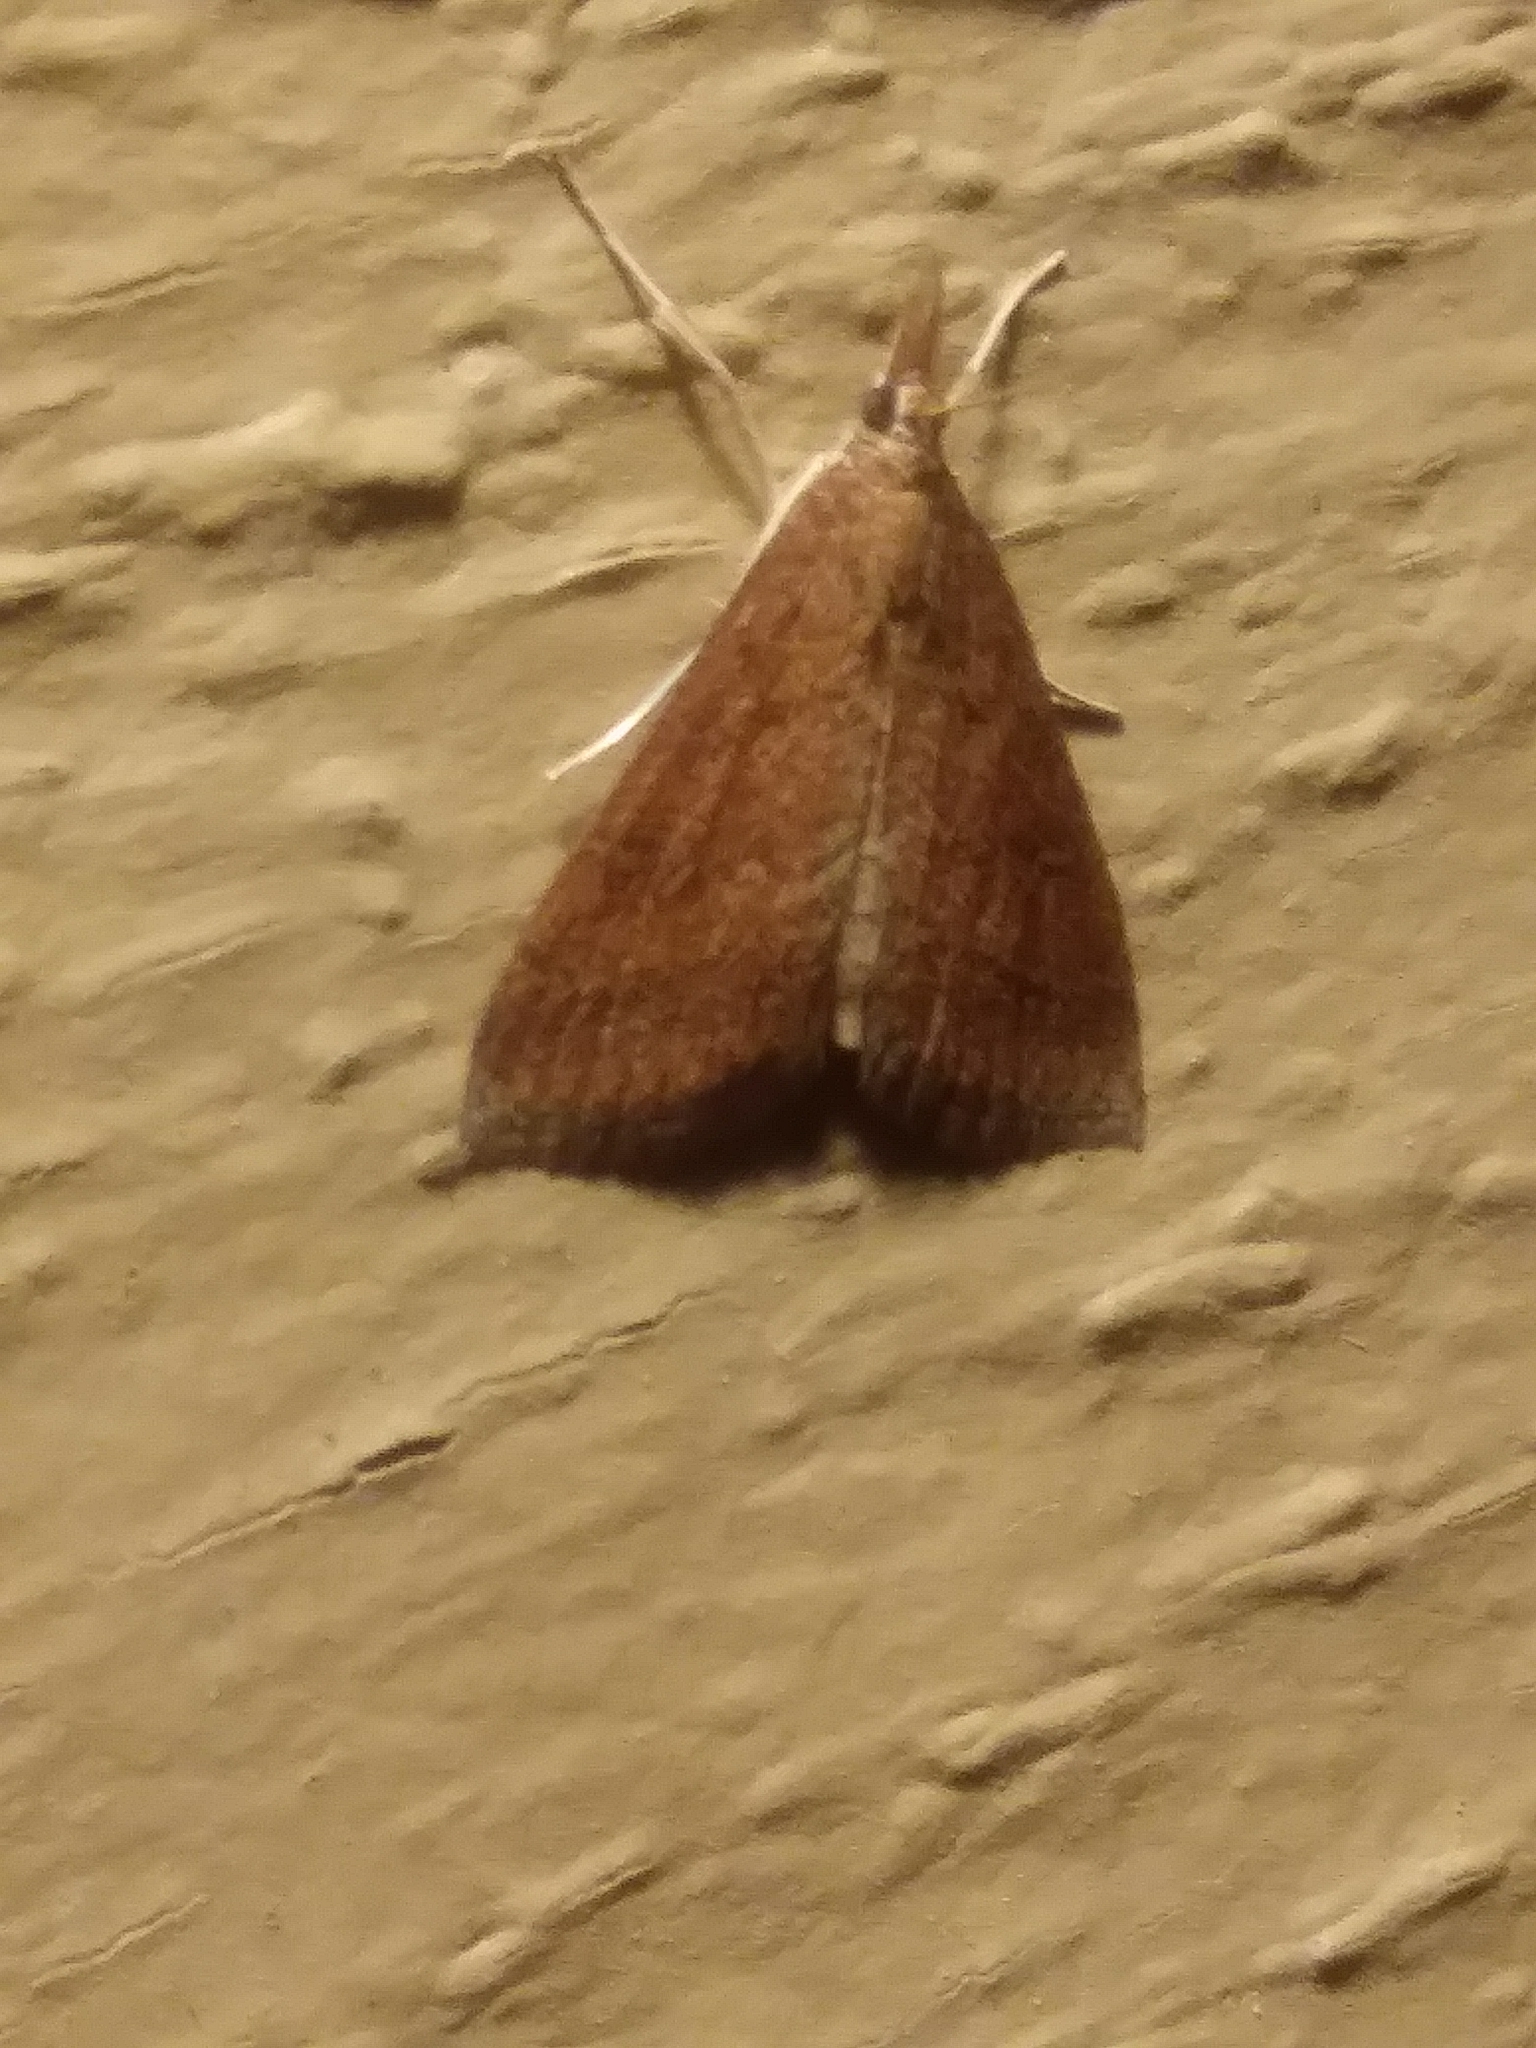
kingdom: Animalia
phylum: Arthropoda
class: Insecta
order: Lepidoptera
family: Crambidae
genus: Udea
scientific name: Udea rubigalis
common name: Celery leaftier moth
